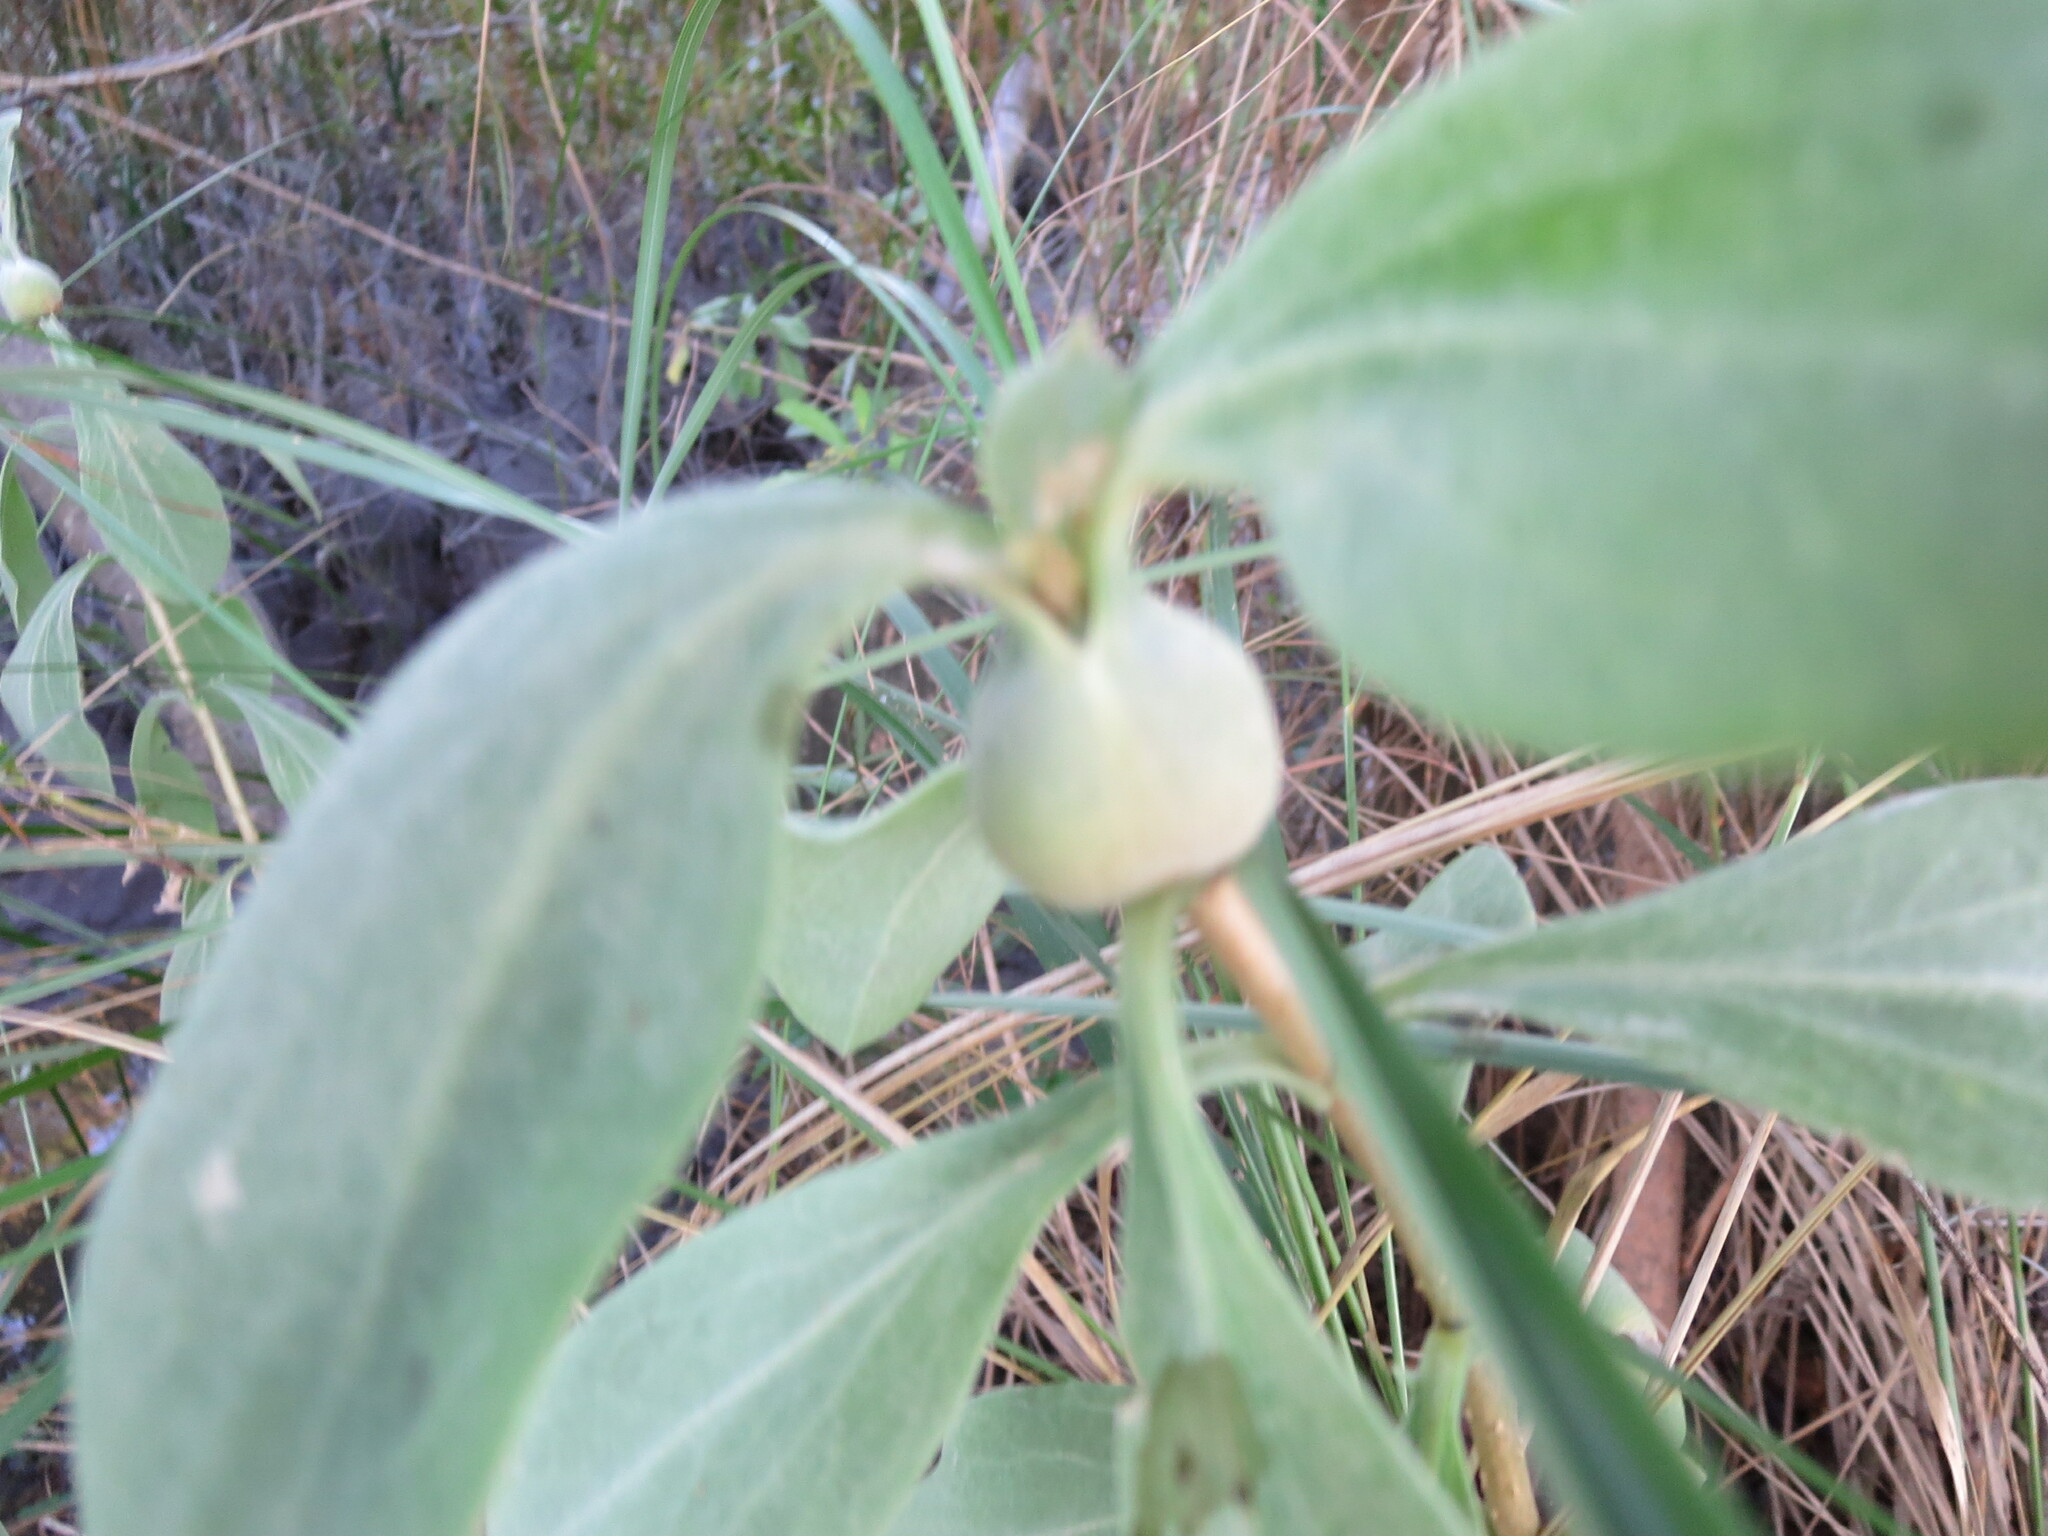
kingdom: Plantae
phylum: Tracheophyta
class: Magnoliopsida
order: Asterales
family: Asteraceae
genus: Borrichia
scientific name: Borrichia frutescens
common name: Sea oxeye
